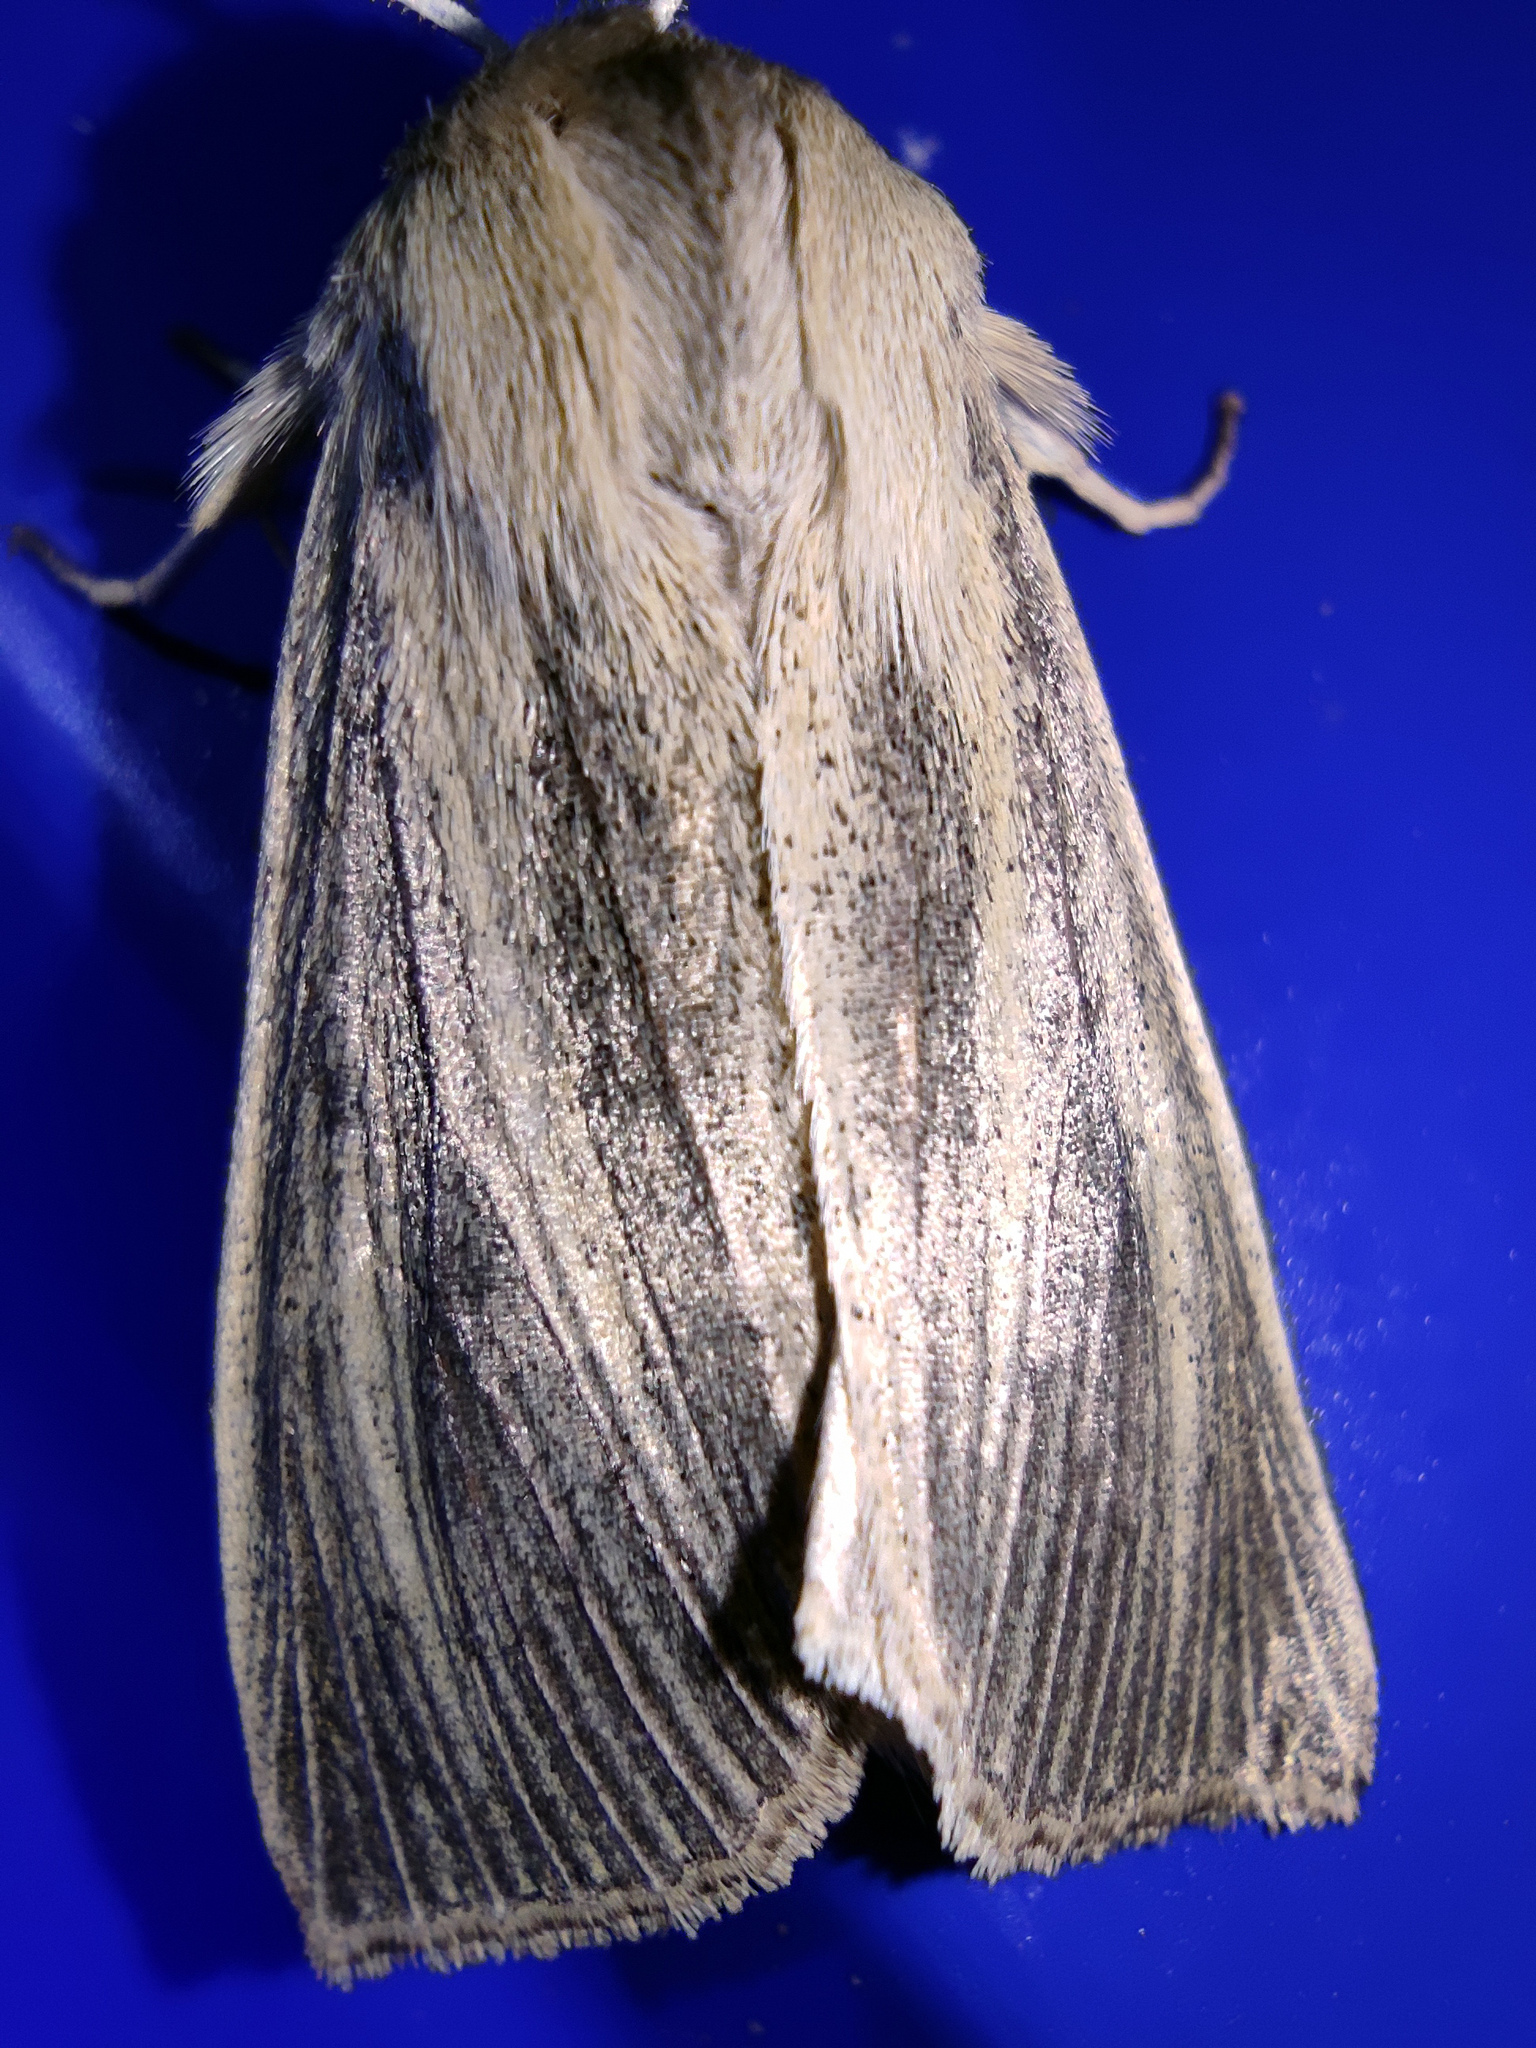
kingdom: Animalia
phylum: Arthropoda
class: Insecta
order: Lepidoptera
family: Noctuidae
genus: Rhizedra
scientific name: Rhizedra lutosa
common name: Large wainscot
